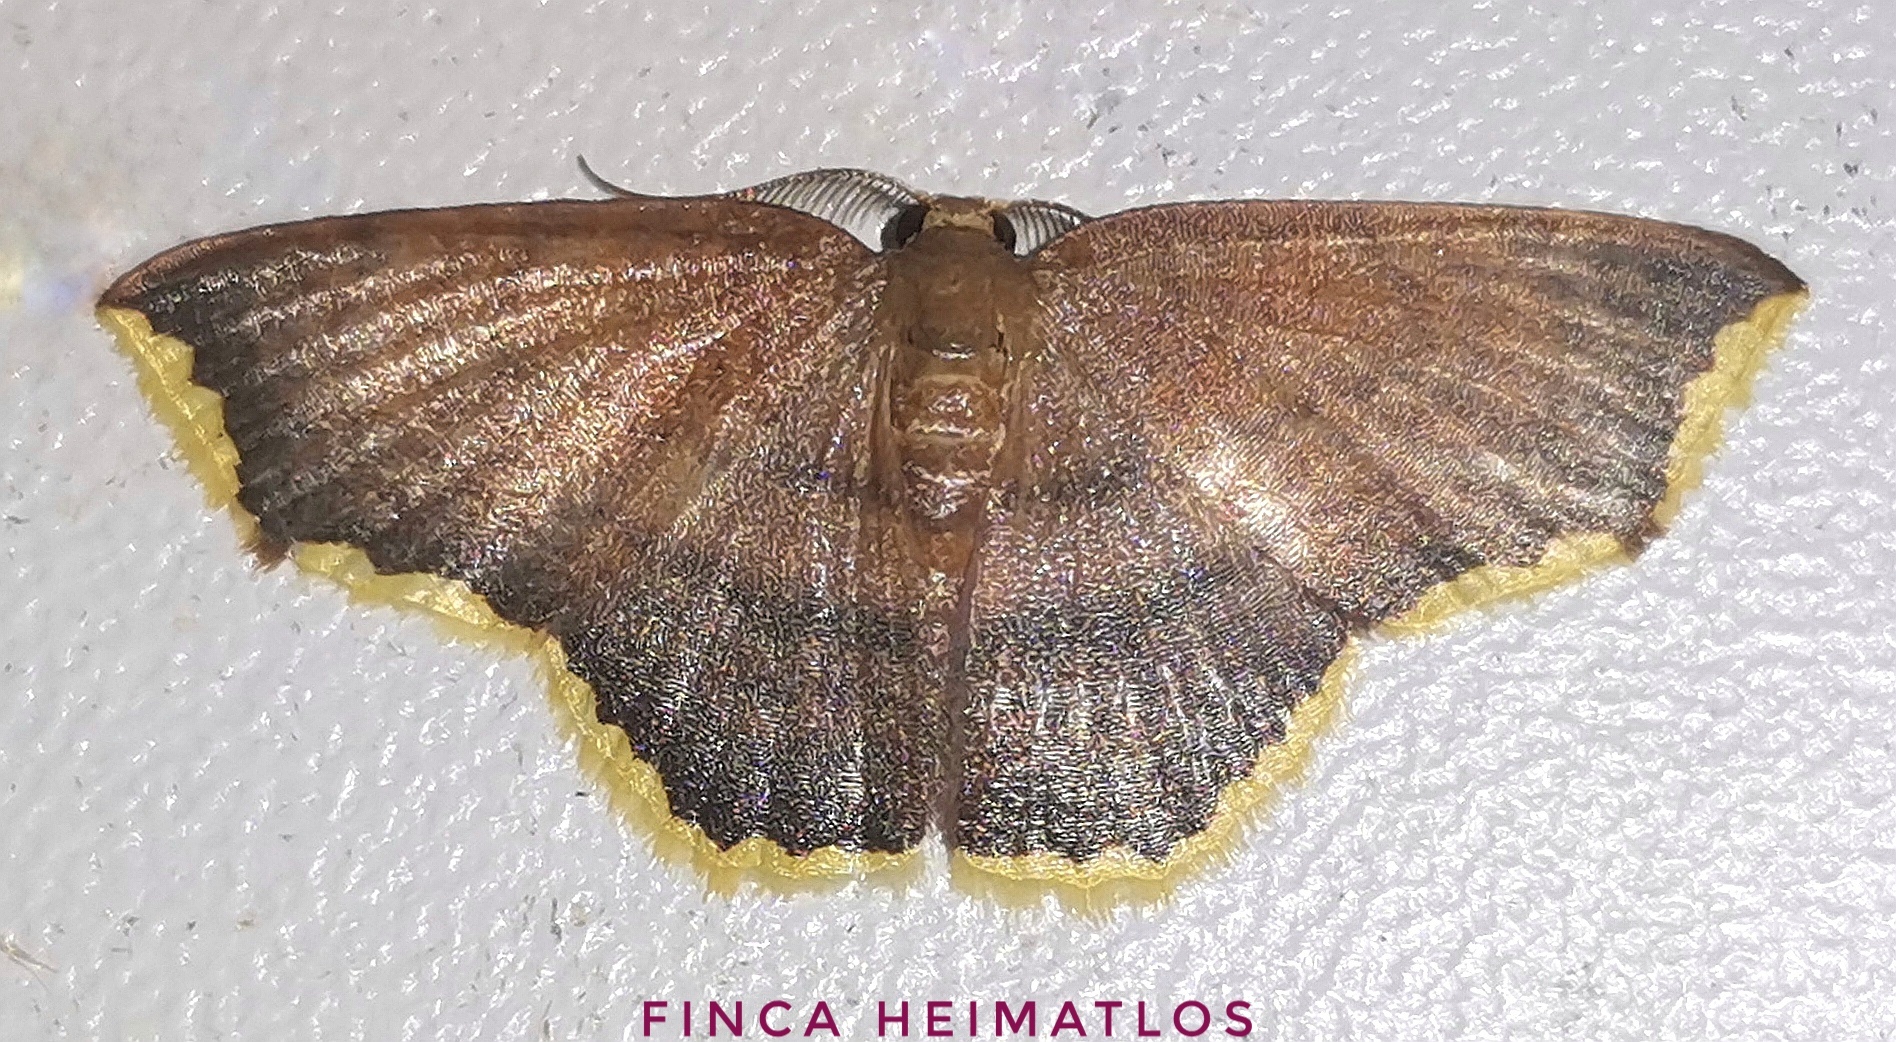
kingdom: Animalia
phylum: Arthropoda
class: Insecta
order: Lepidoptera
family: Geometridae
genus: Eois
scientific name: Eois thetisaria
